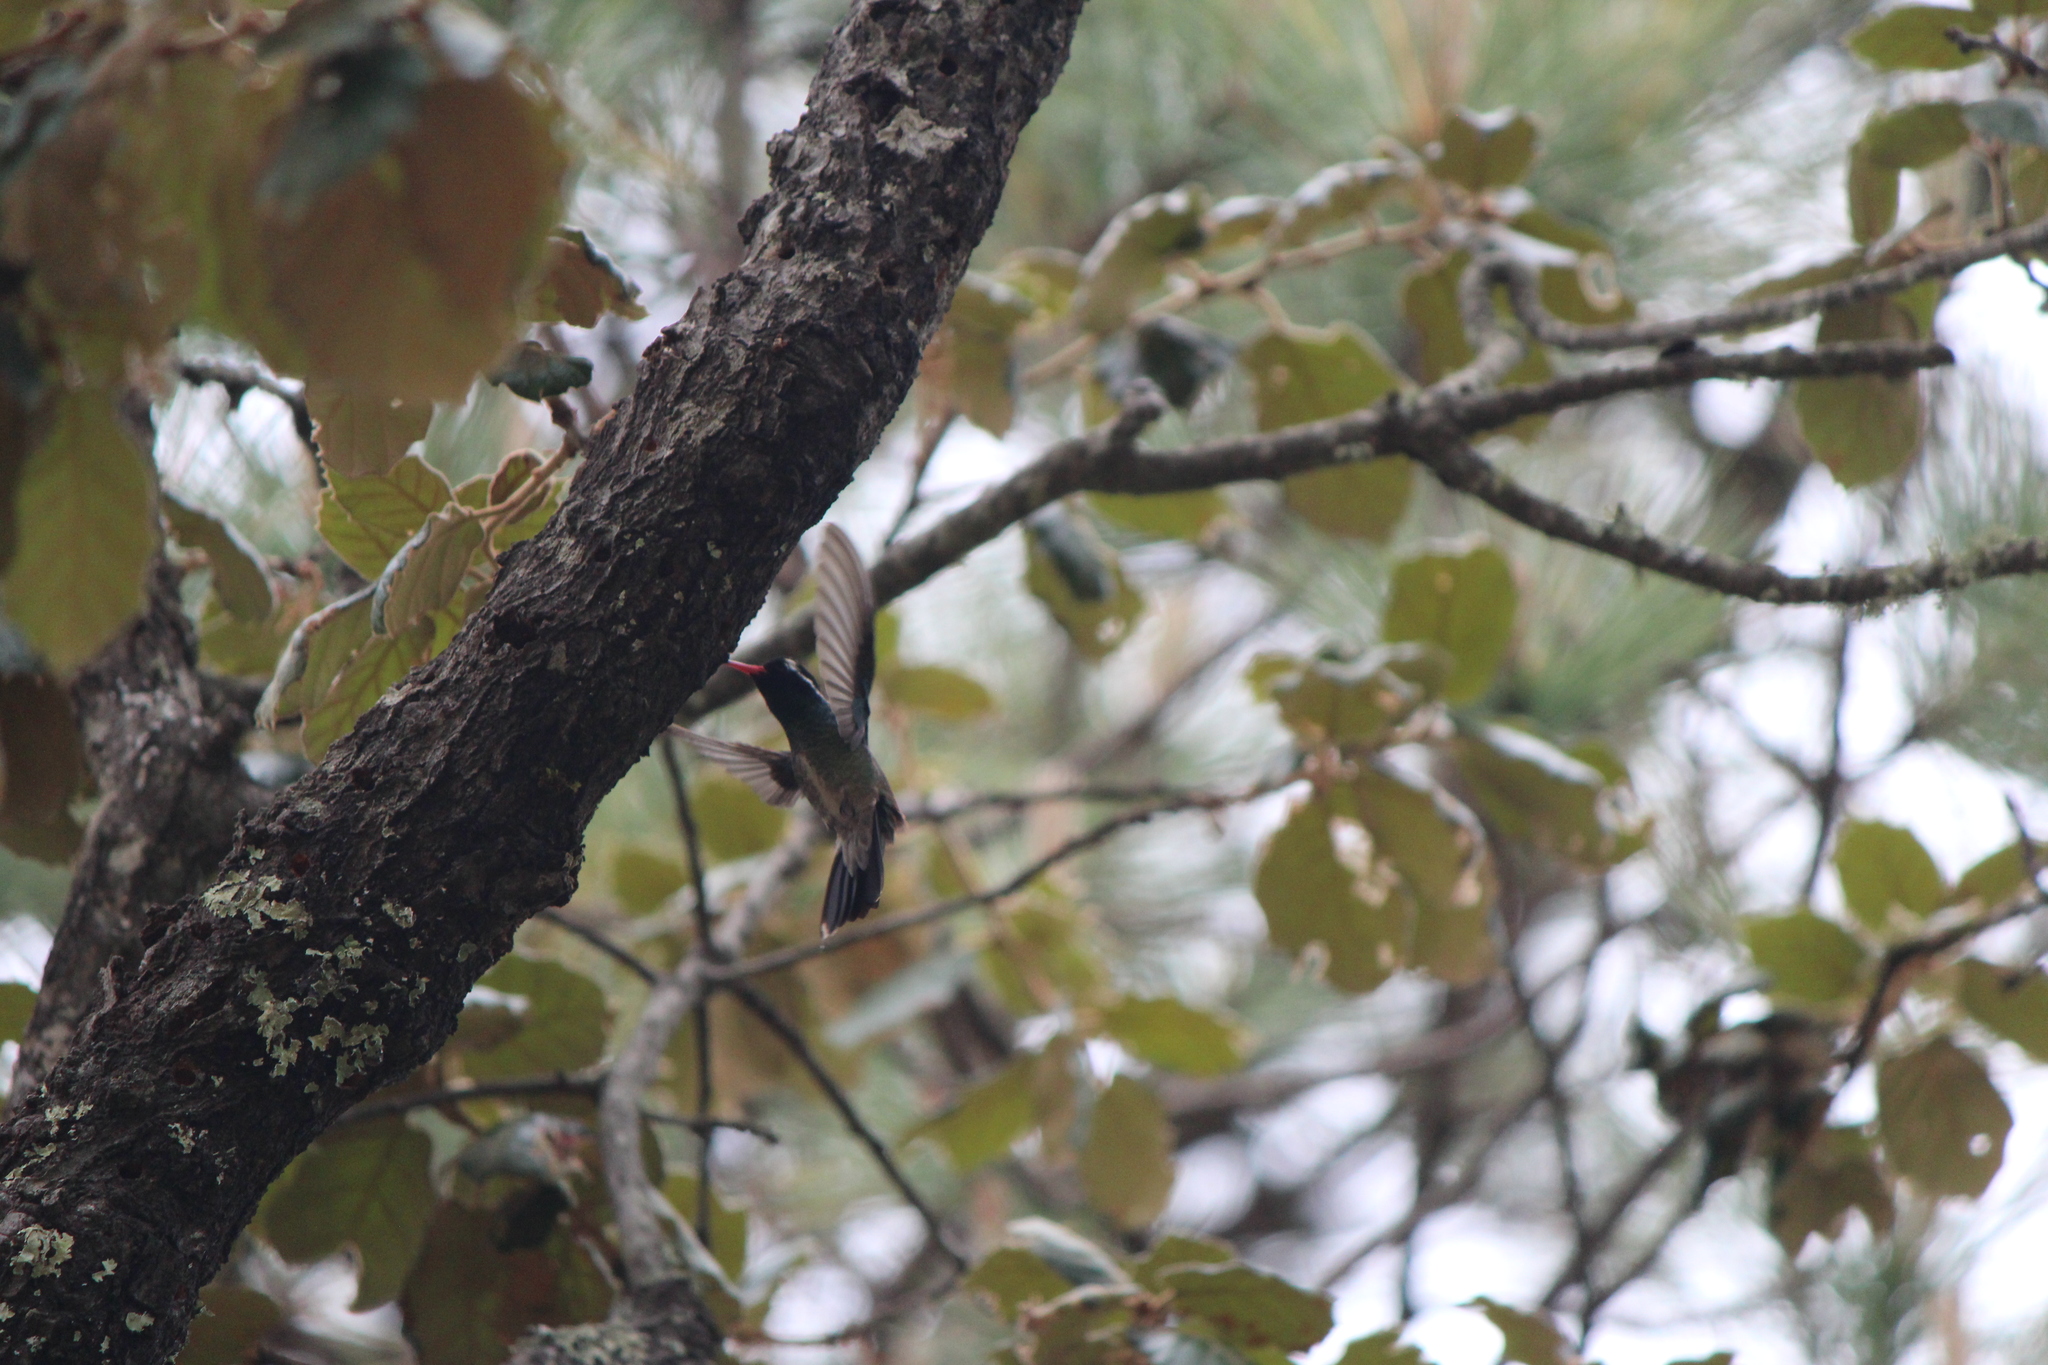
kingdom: Animalia
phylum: Chordata
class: Aves
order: Apodiformes
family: Trochilidae
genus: Basilinna
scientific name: Basilinna leucotis
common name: White-eared hummingbird
